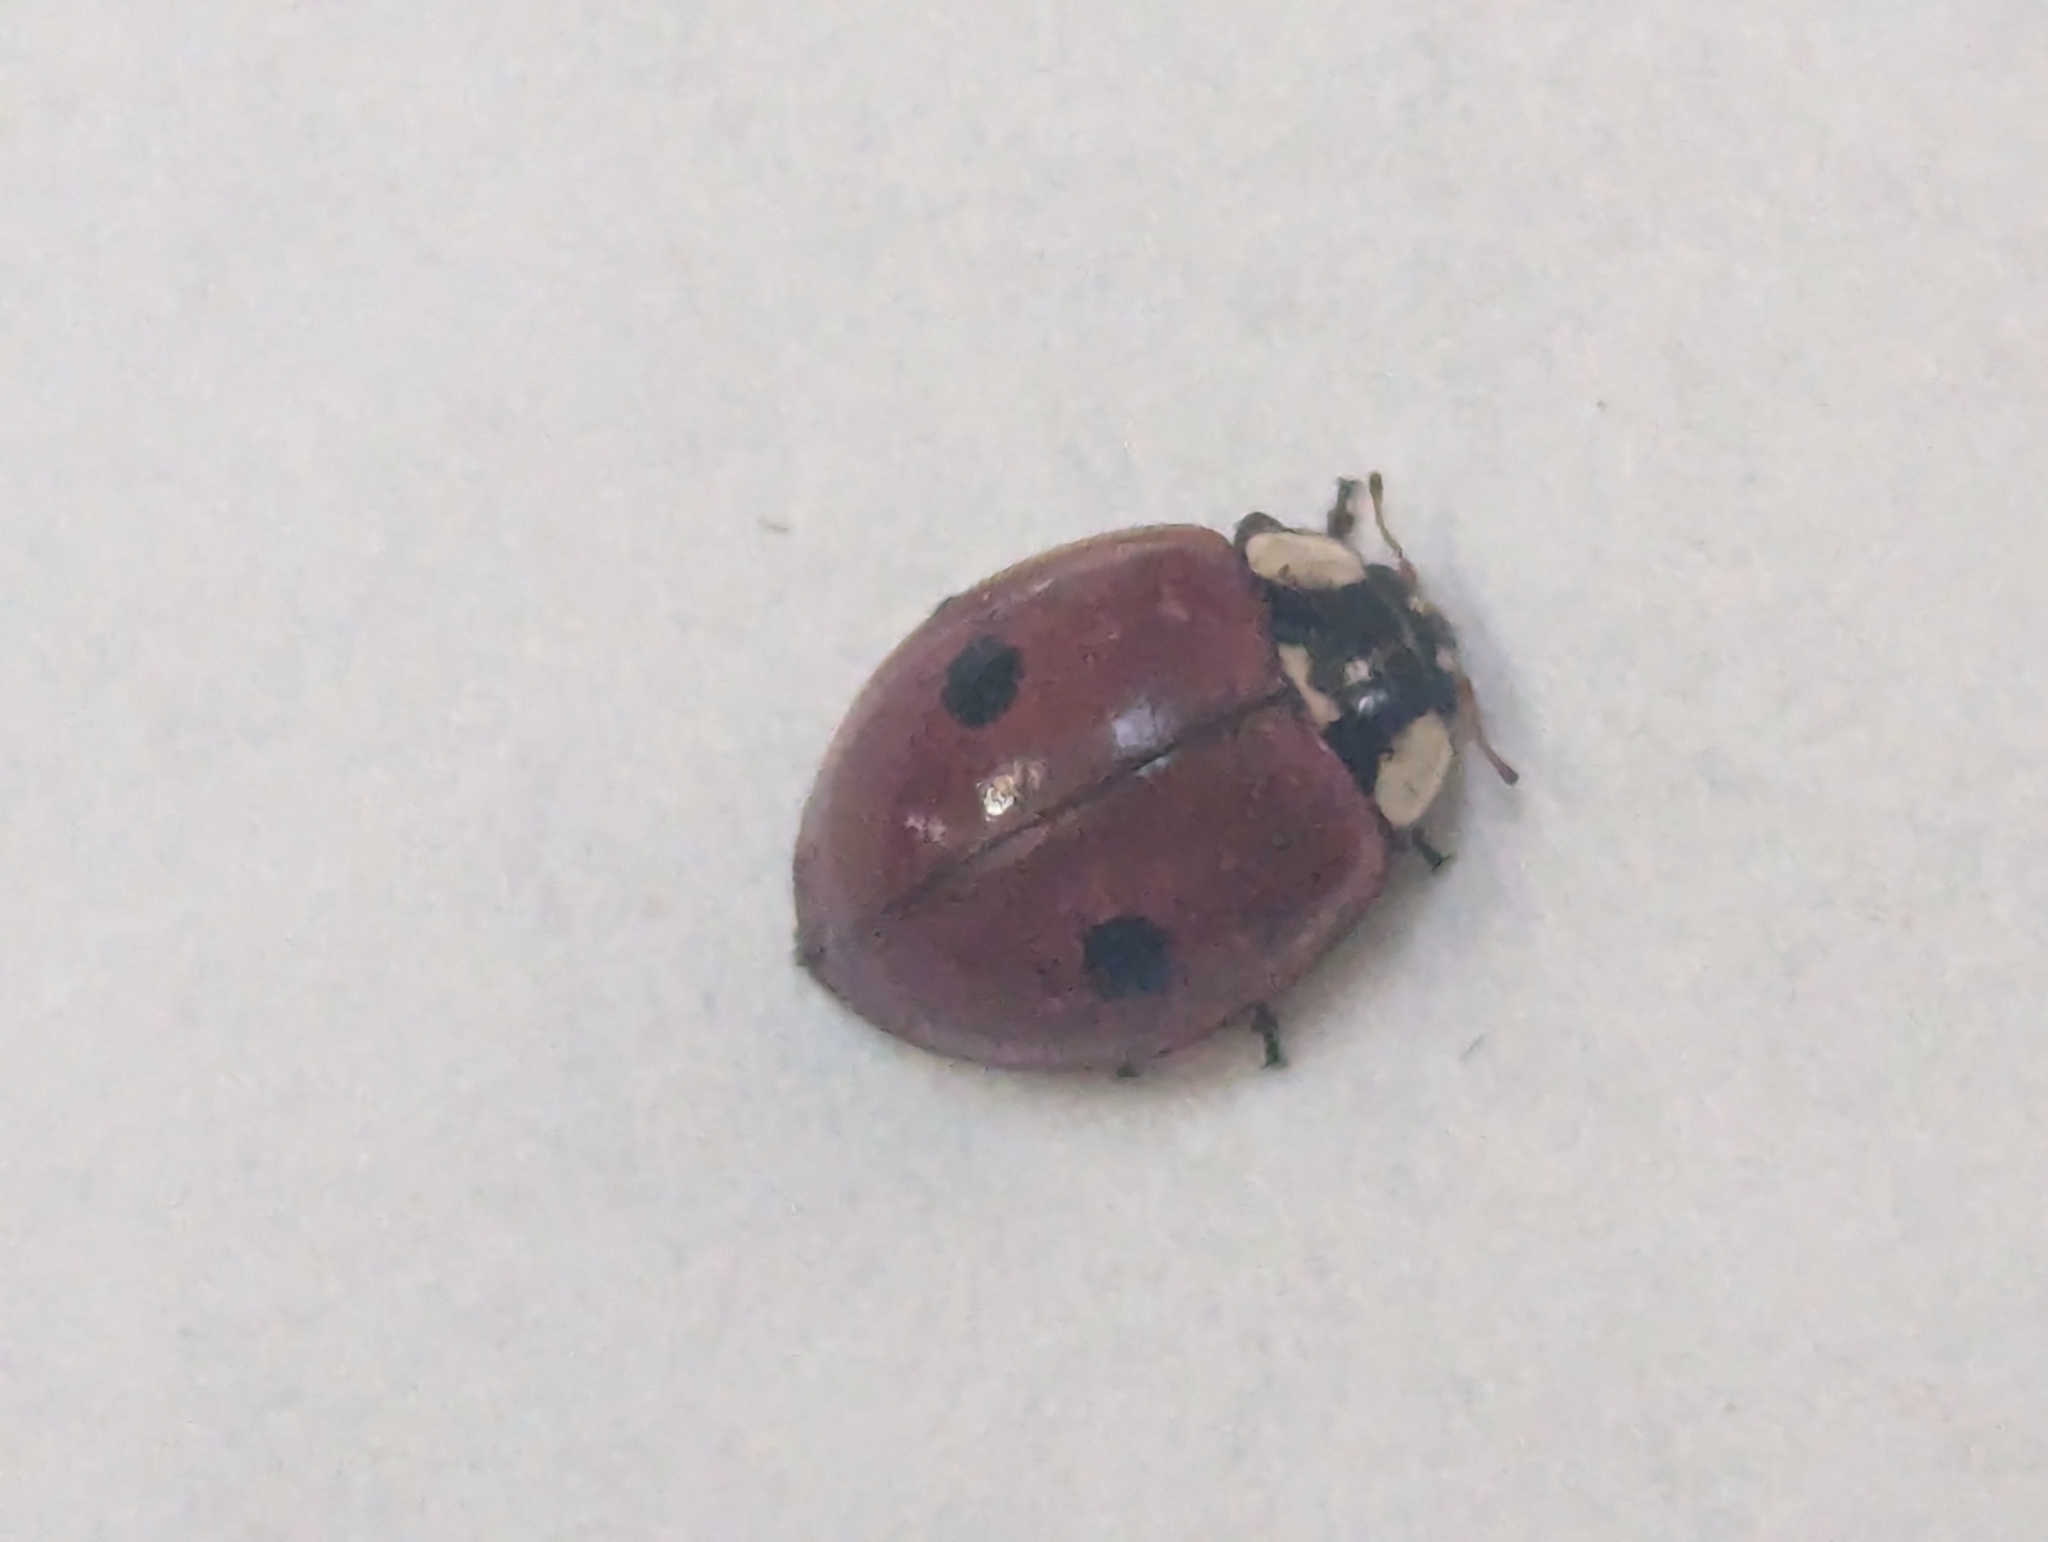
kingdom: Animalia
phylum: Arthropoda
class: Insecta
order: Coleoptera
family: Coccinellidae
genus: Adalia
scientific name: Adalia bipunctata
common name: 2-spot ladybird
